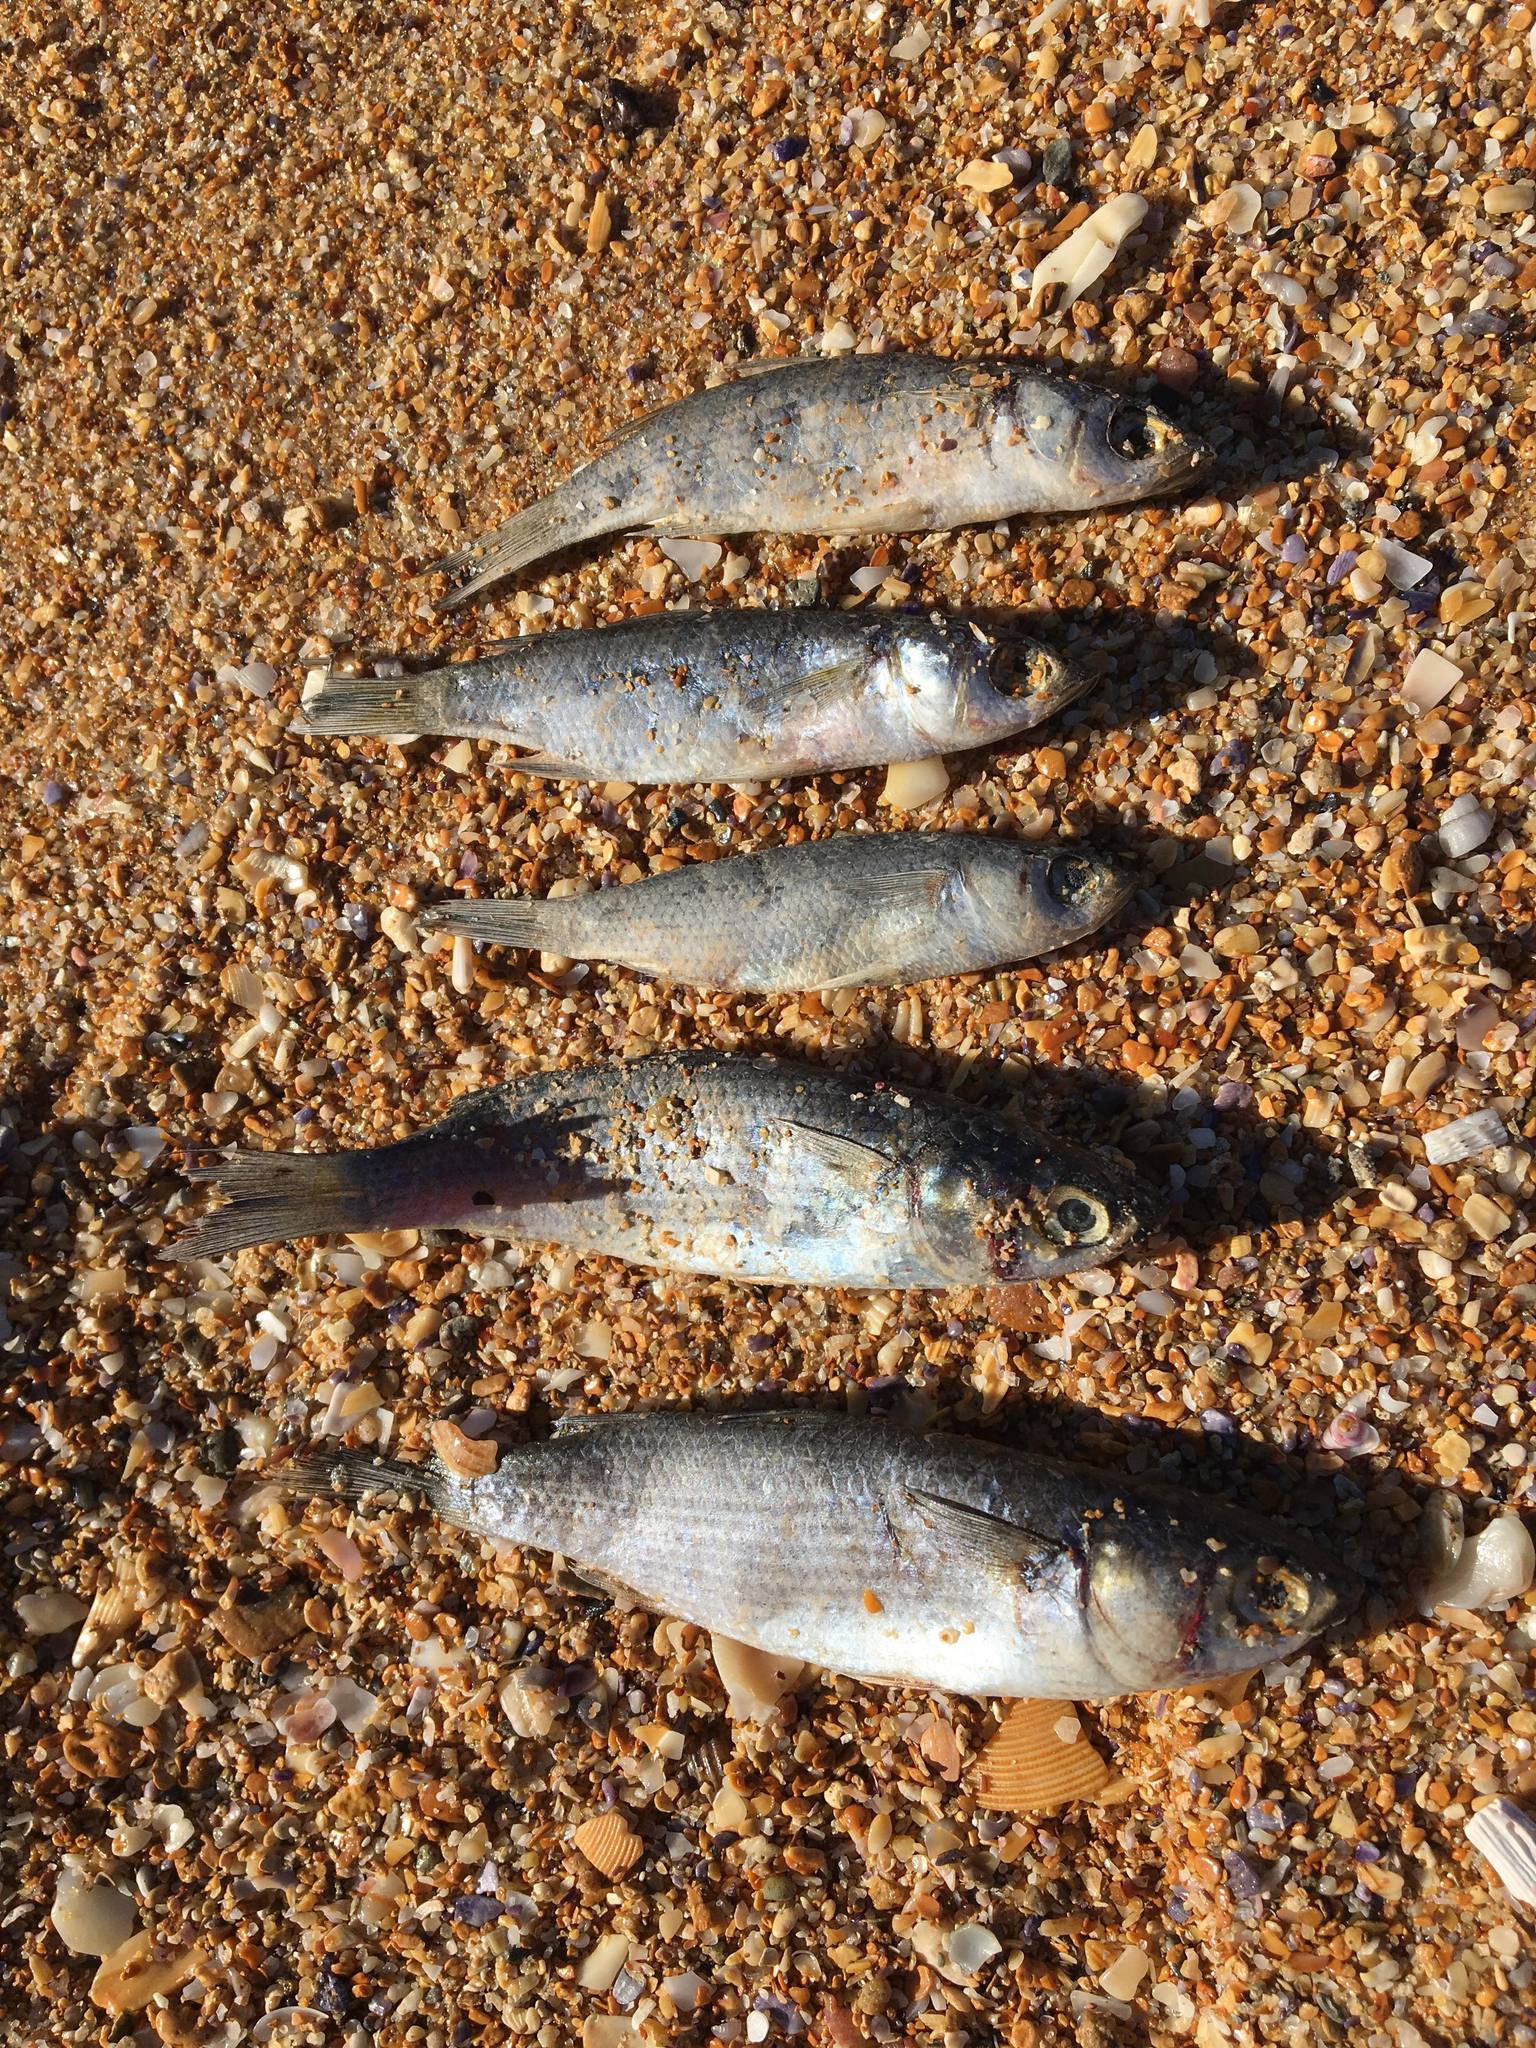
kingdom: Animalia
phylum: Chordata
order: Mugiliformes
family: Mugilidae
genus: Mugil
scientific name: Mugil cephalus
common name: Grey mullet
